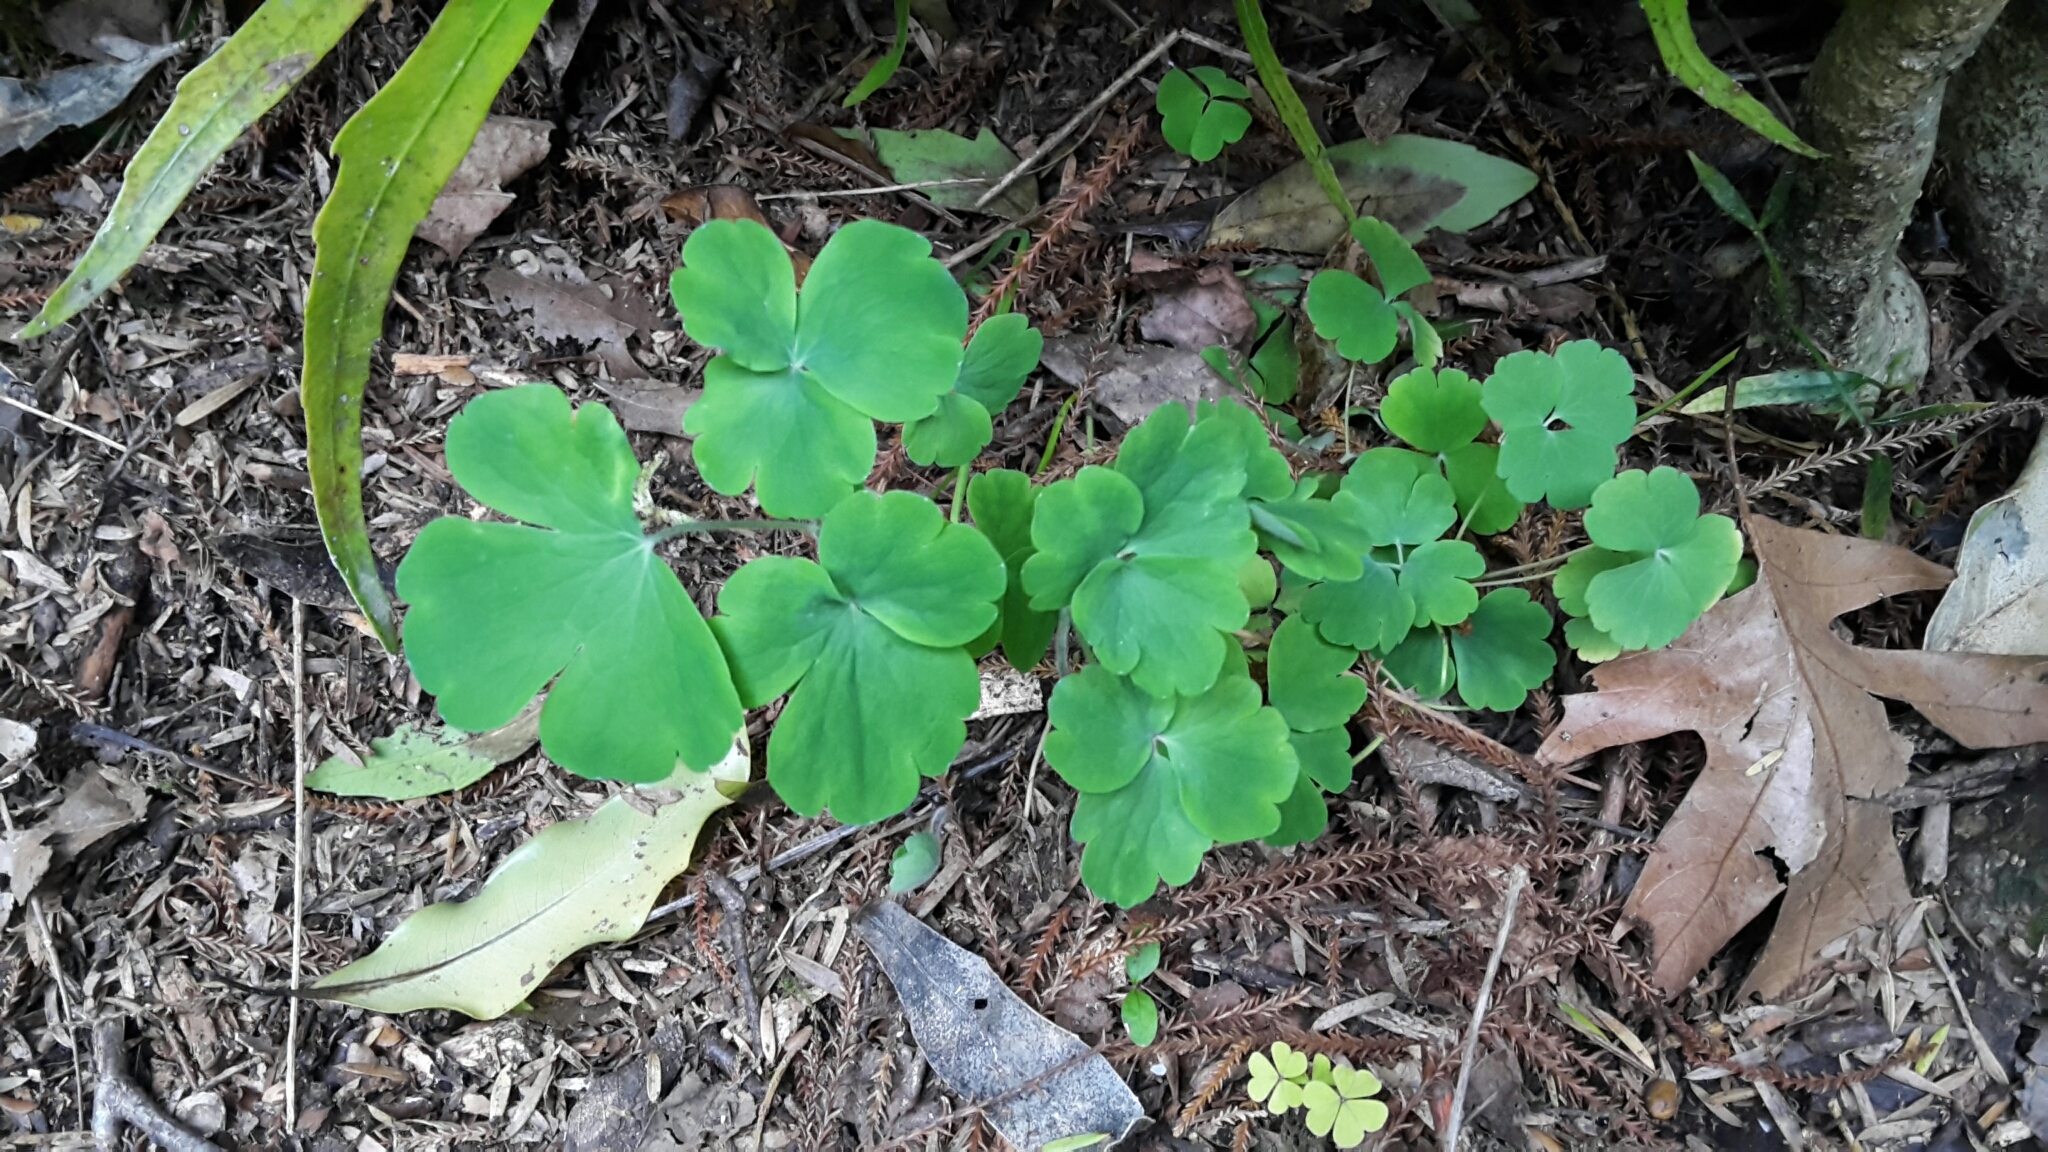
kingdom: Plantae
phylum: Tracheophyta
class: Magnoliopsida
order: Ranunculales
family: Ranunculaceae
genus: Aquilegia
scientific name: Aquilegia vulgaris
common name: Columbine
